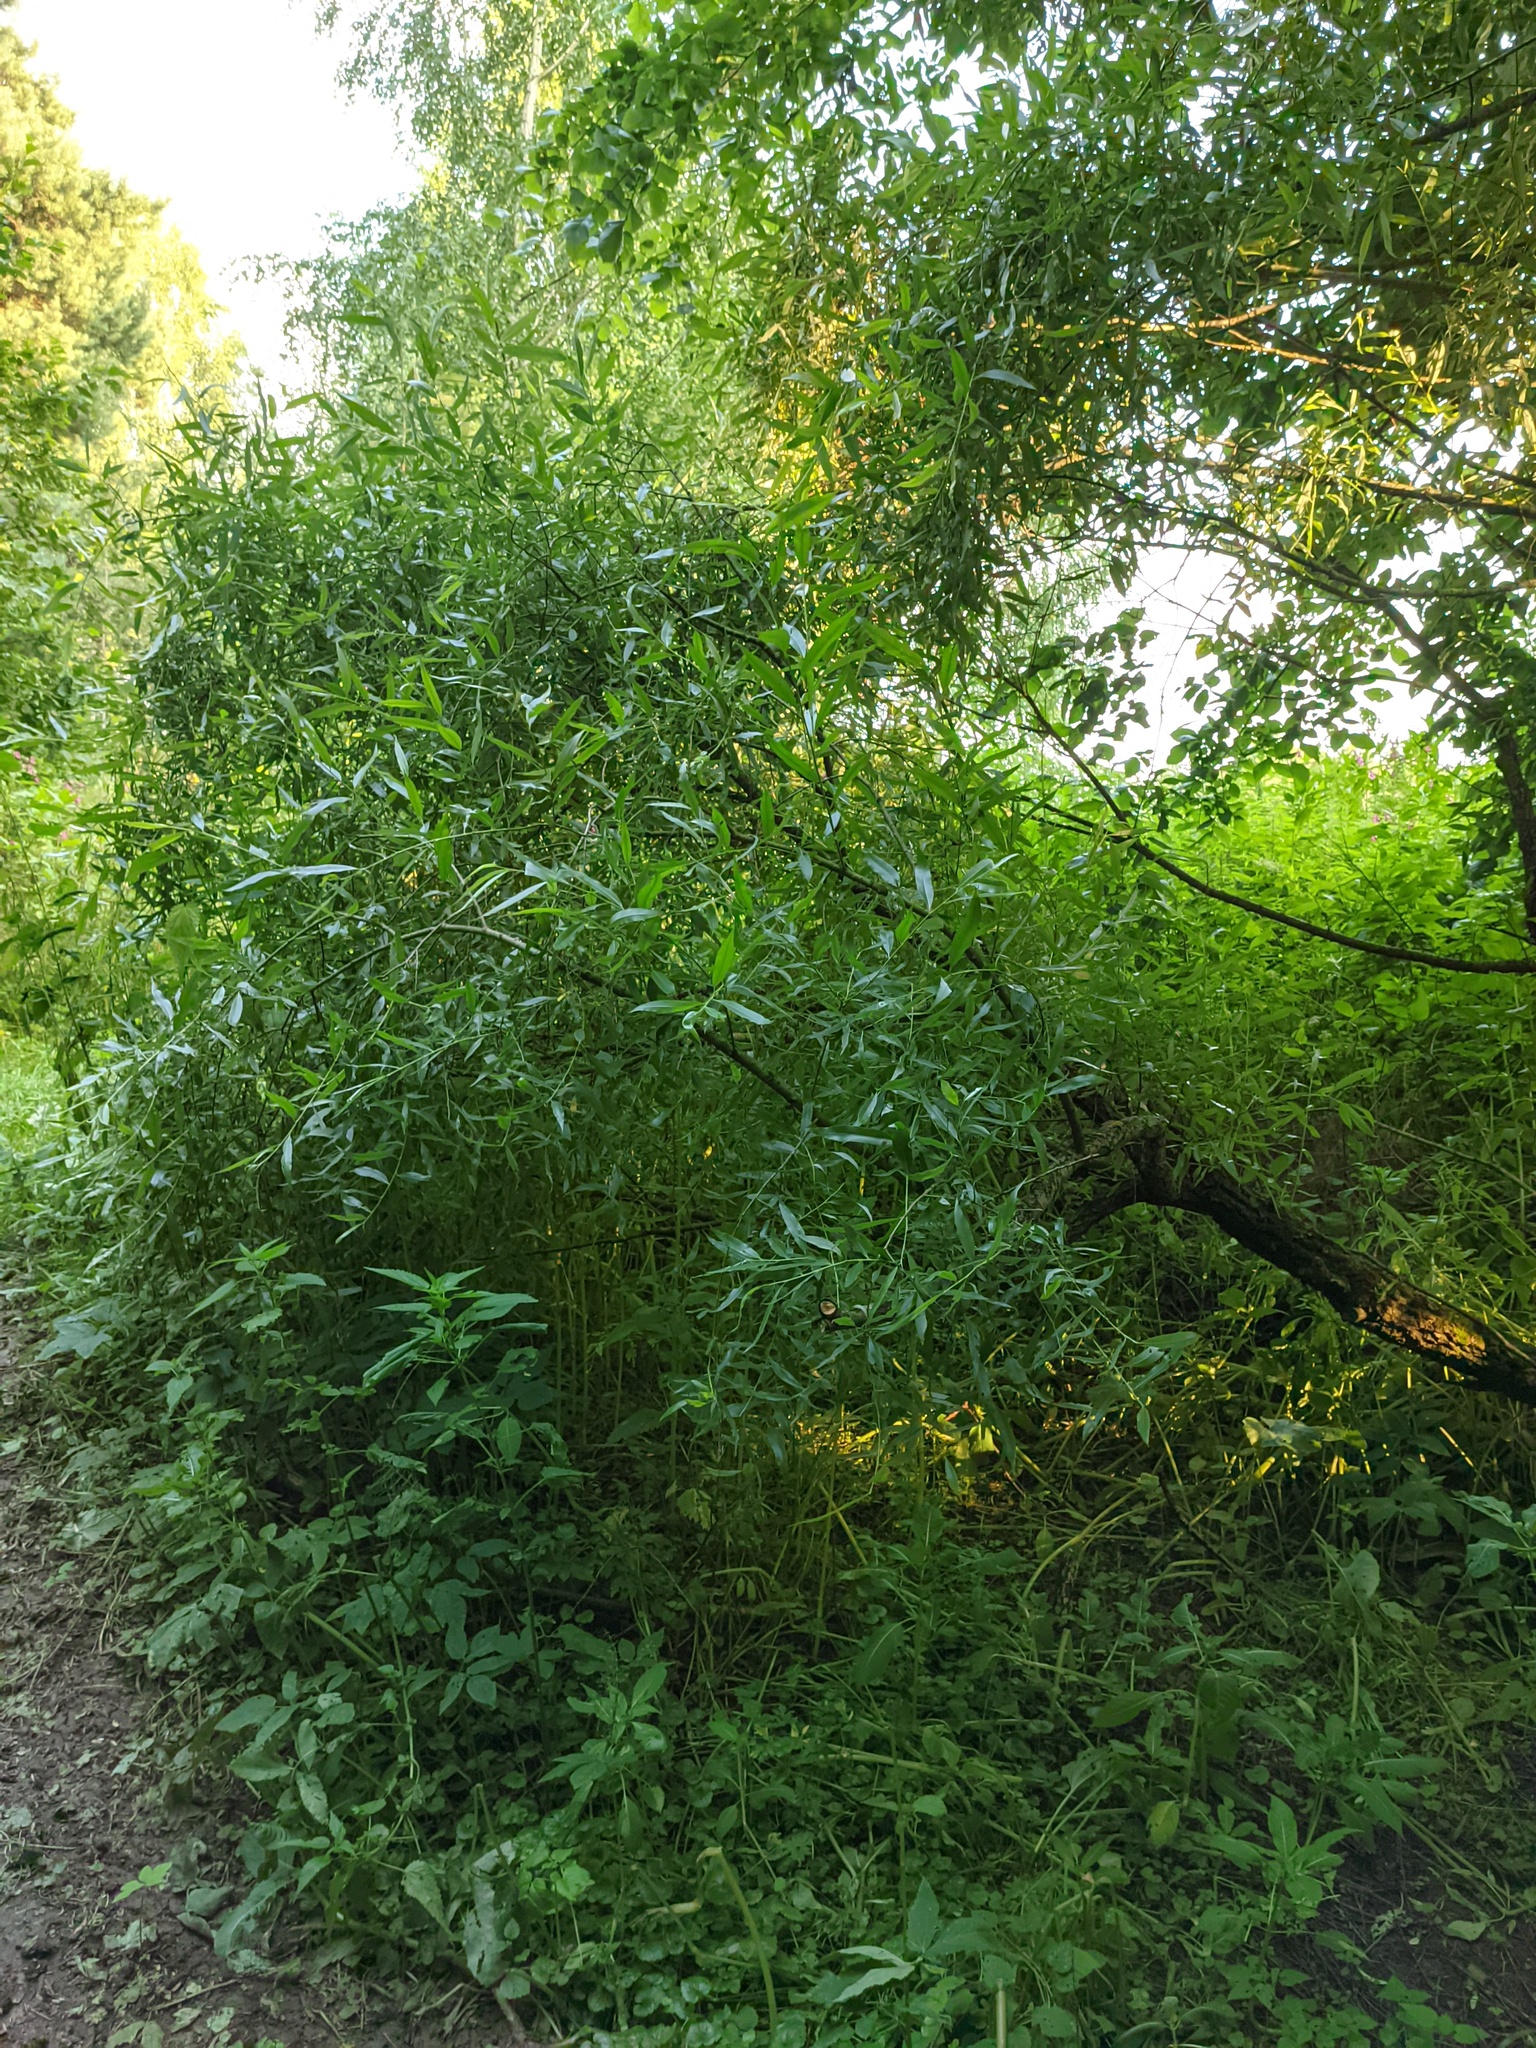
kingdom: Plantae
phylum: Tracheophyta
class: Magnoliopsida
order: Malpighiales
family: Salicaceae
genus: Salix
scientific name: Salix alba
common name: White willow
